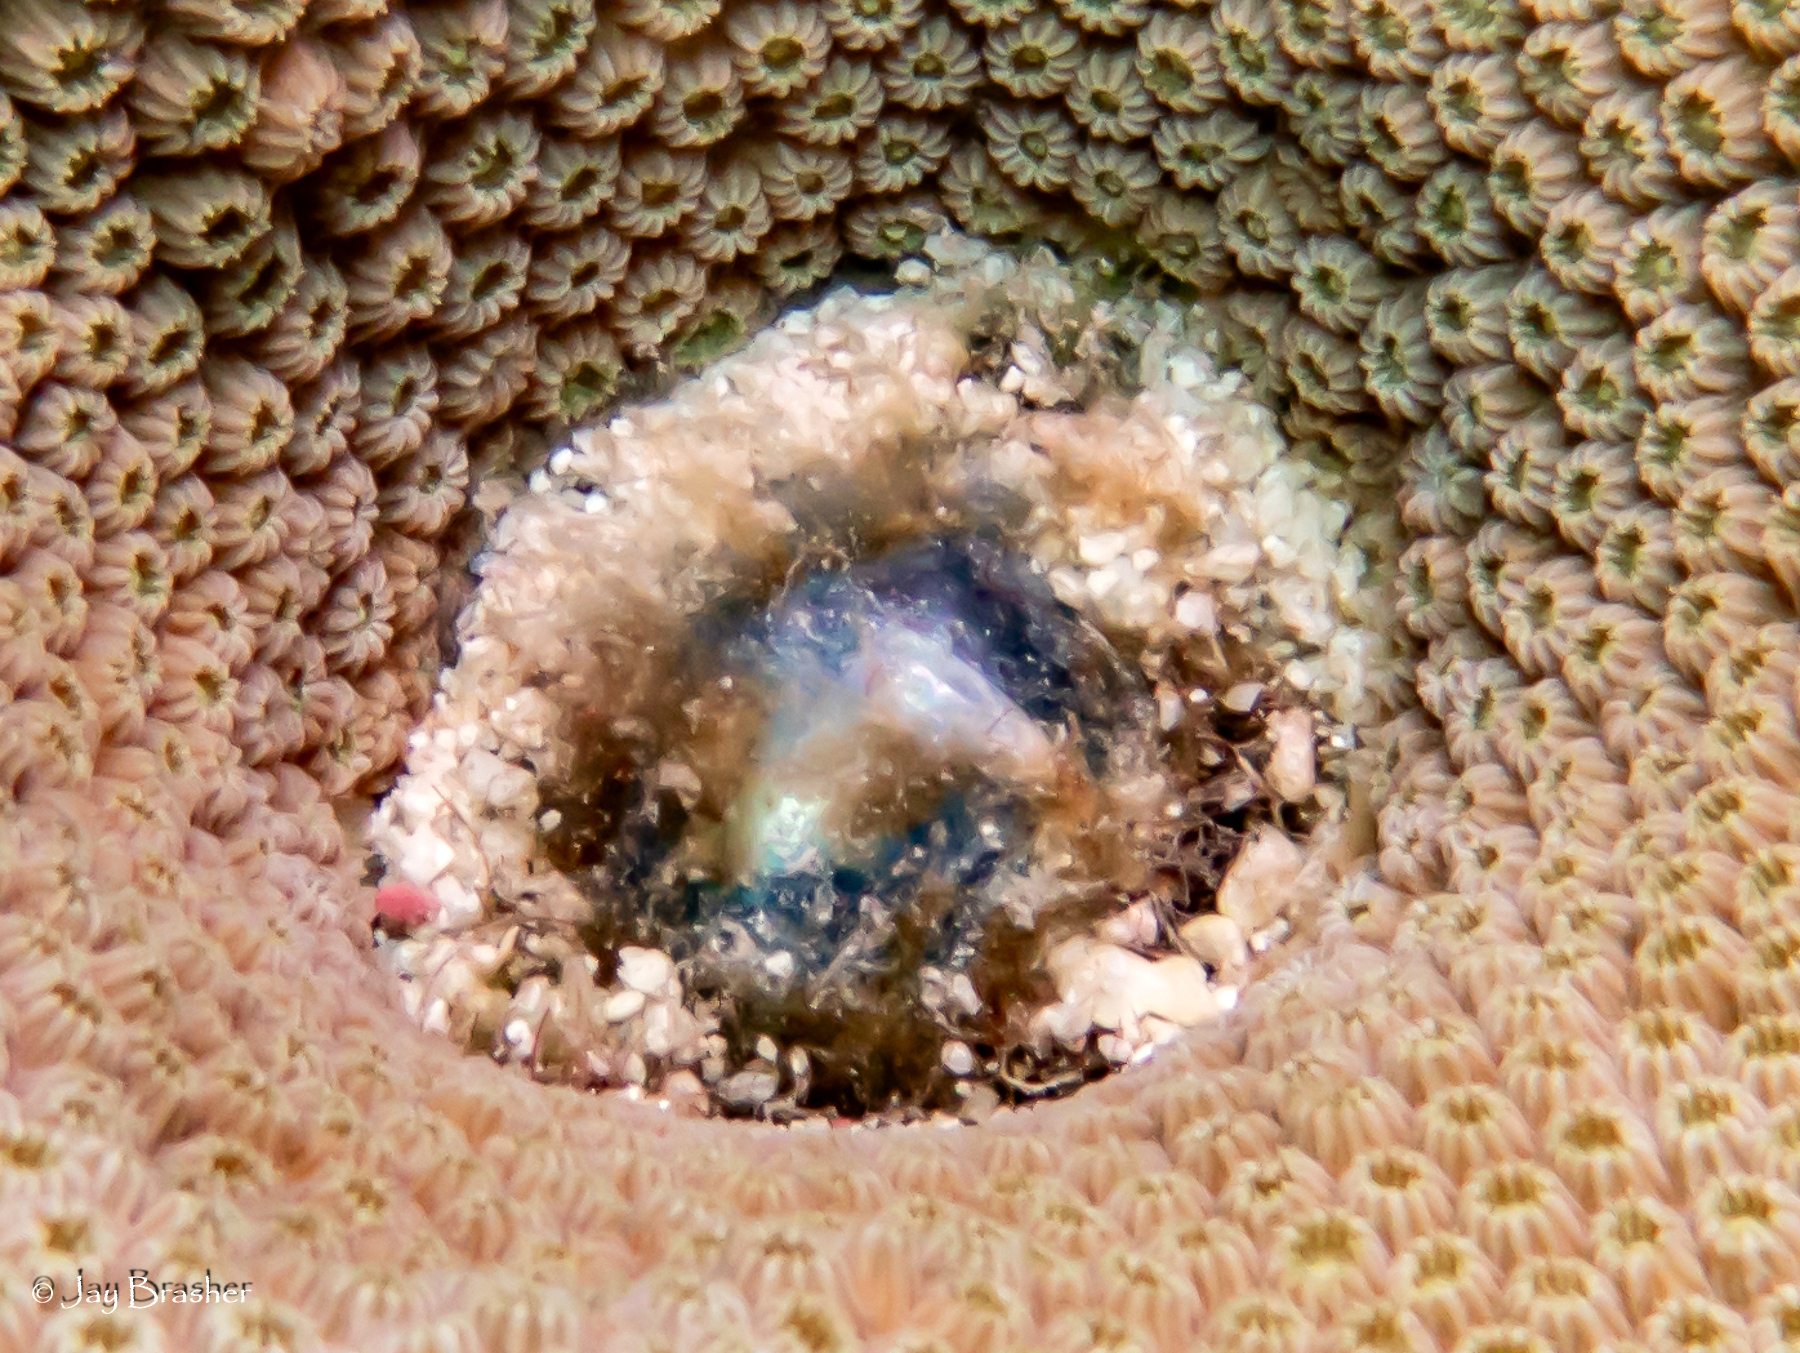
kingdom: Plantae
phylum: Chlorophyta
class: Ulvophyceae
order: Siphonocladales
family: Valoniaceae
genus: Valonia
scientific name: Valonia ventricosa
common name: Sea pearl
